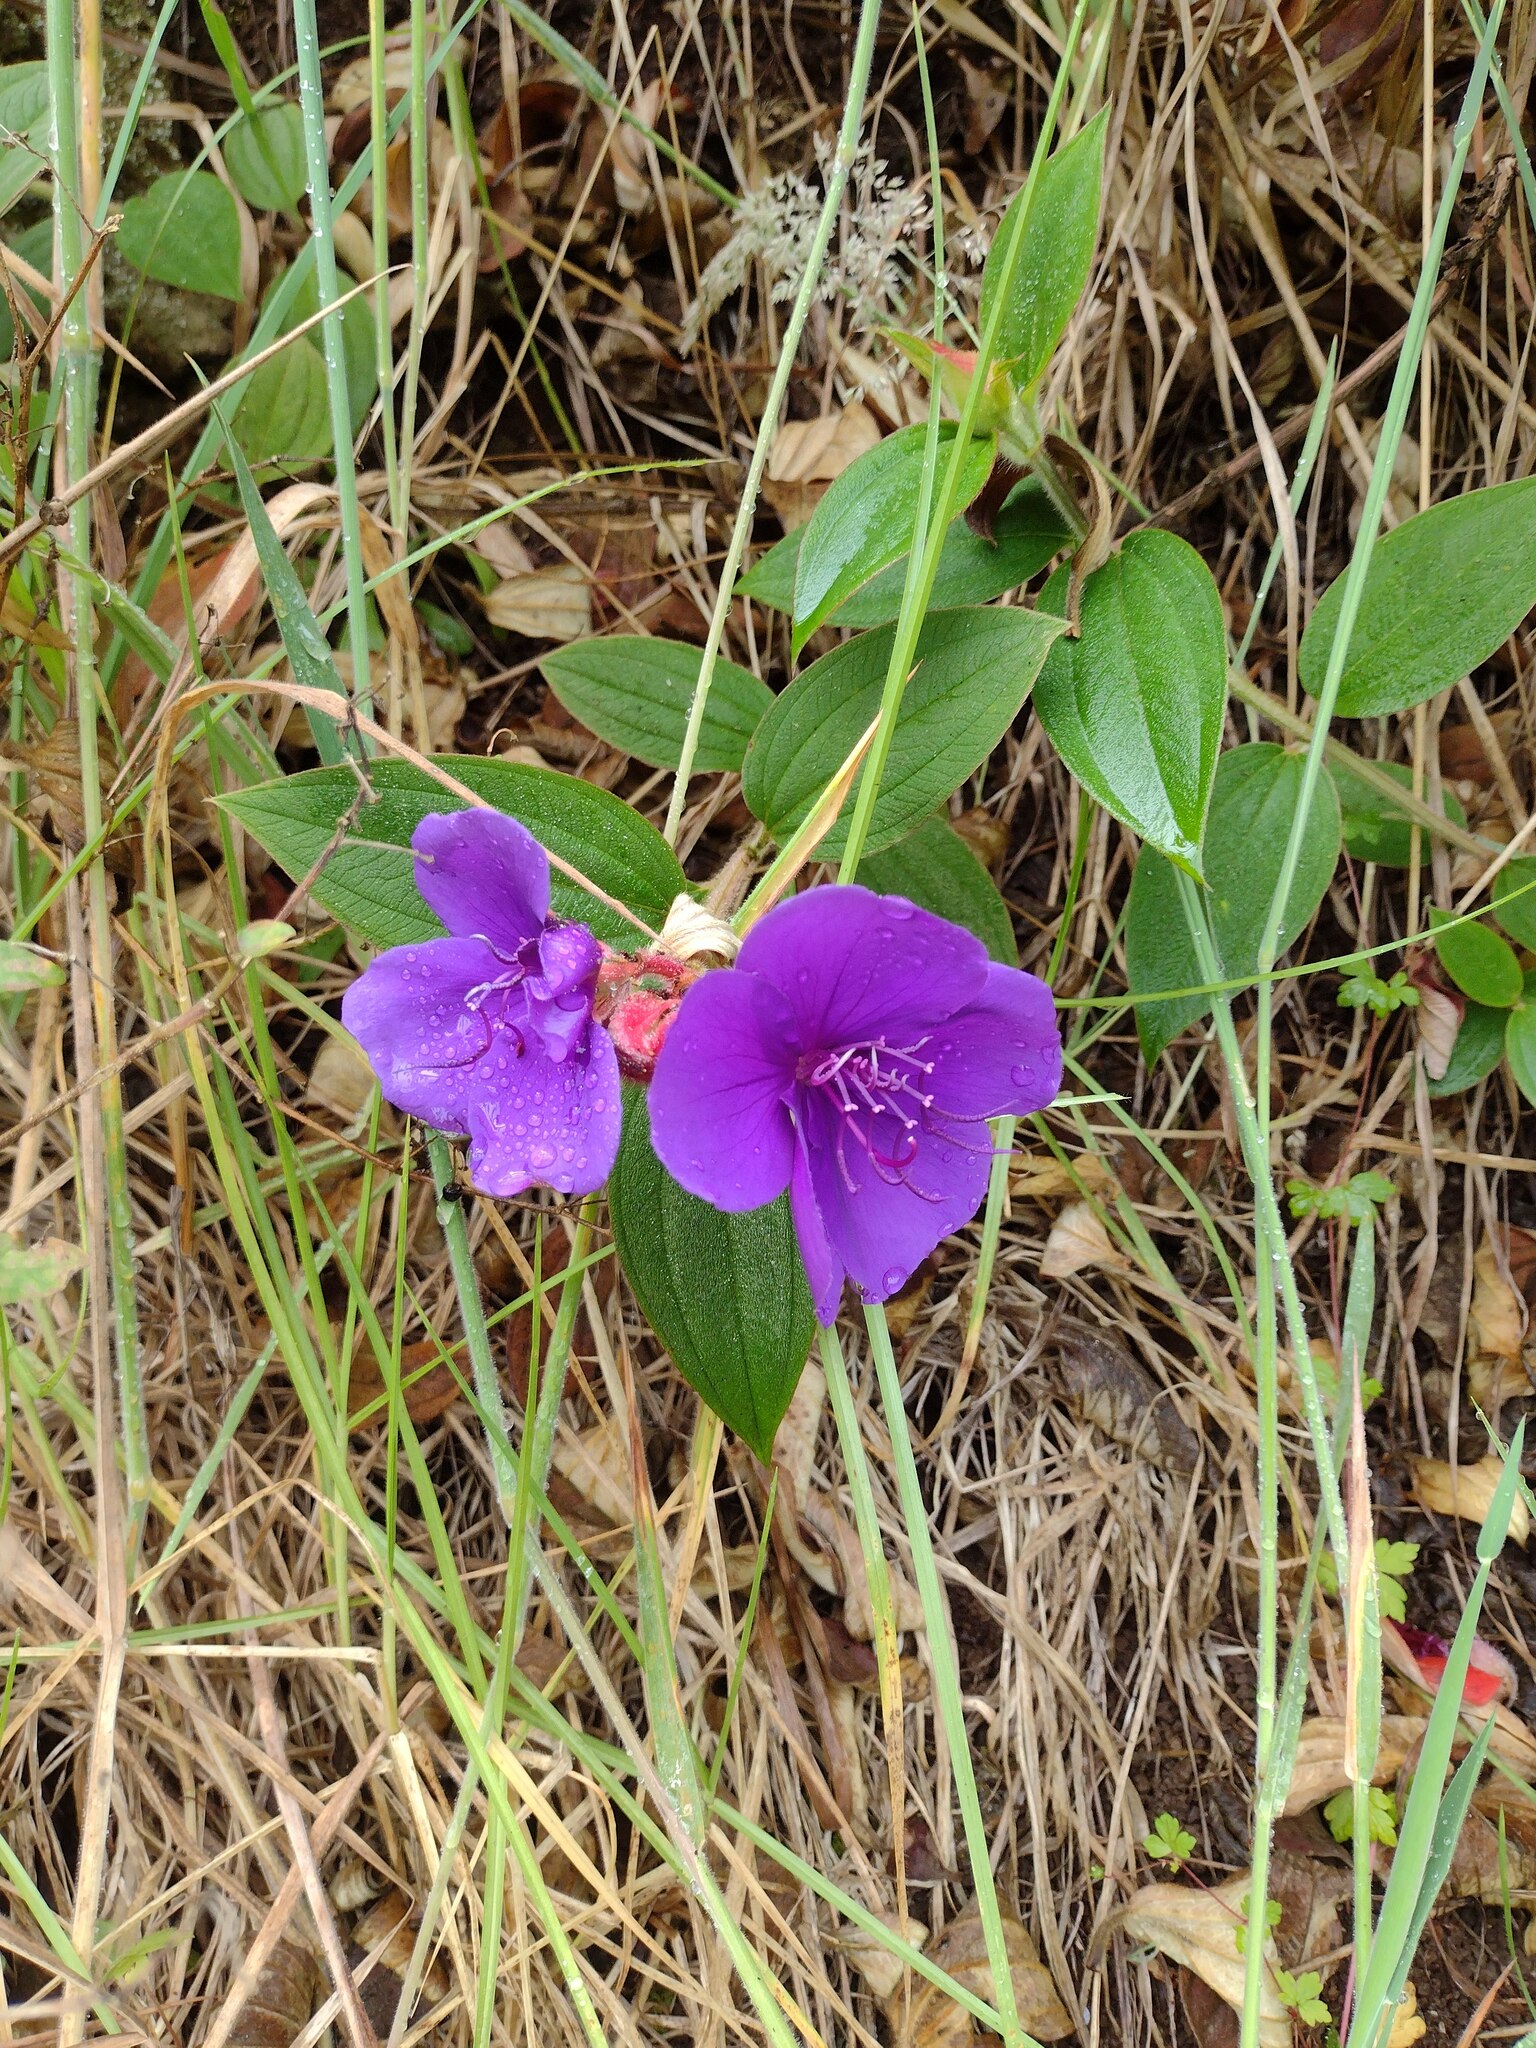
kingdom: Plantae
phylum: Tracheophyta
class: Magnoliopsida
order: Myrtales
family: Melastomataceae
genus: Pleroma
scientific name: Pleroma urvilleanum
